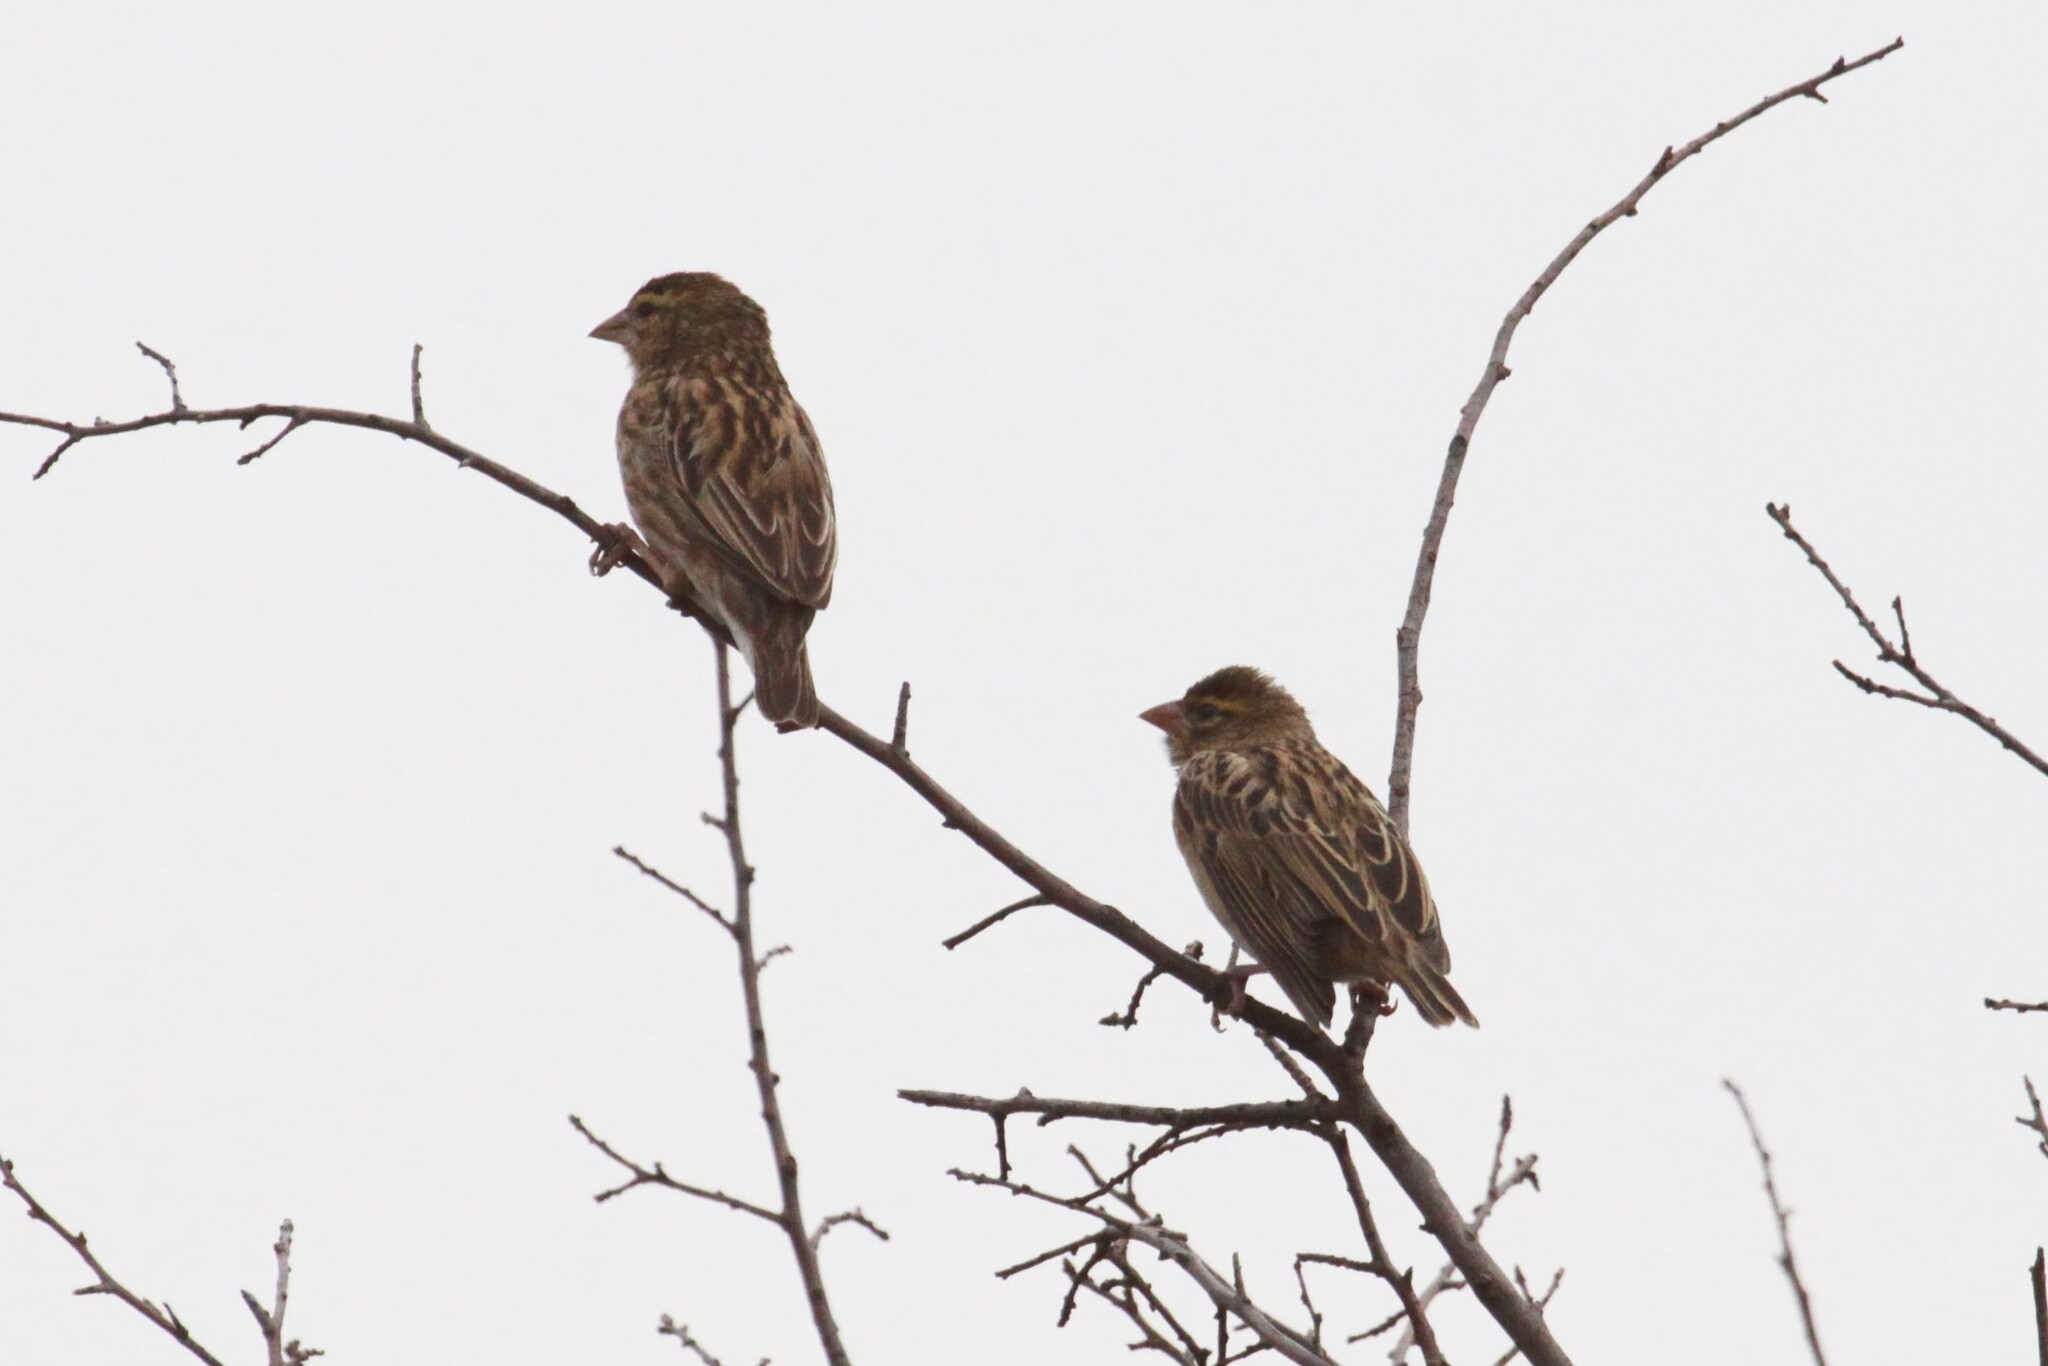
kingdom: Animalia
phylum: Chordata
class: Aves
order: Passeriformes
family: Ploceidae
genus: Euplectes
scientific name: Euplectes orix
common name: Southern red bishop
